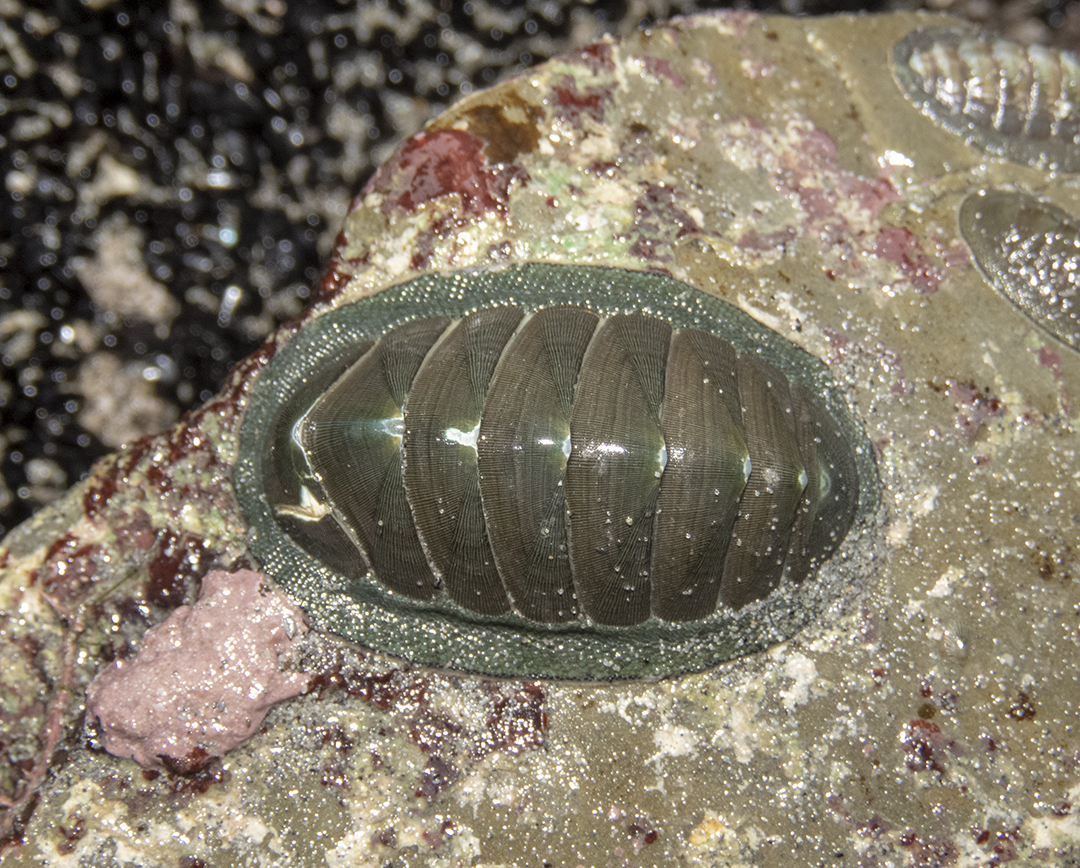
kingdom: Animalia
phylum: Mollusca
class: Polyplacophora
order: Chitonida
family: Chitonidae
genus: Chiton
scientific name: Chiton glaucus
